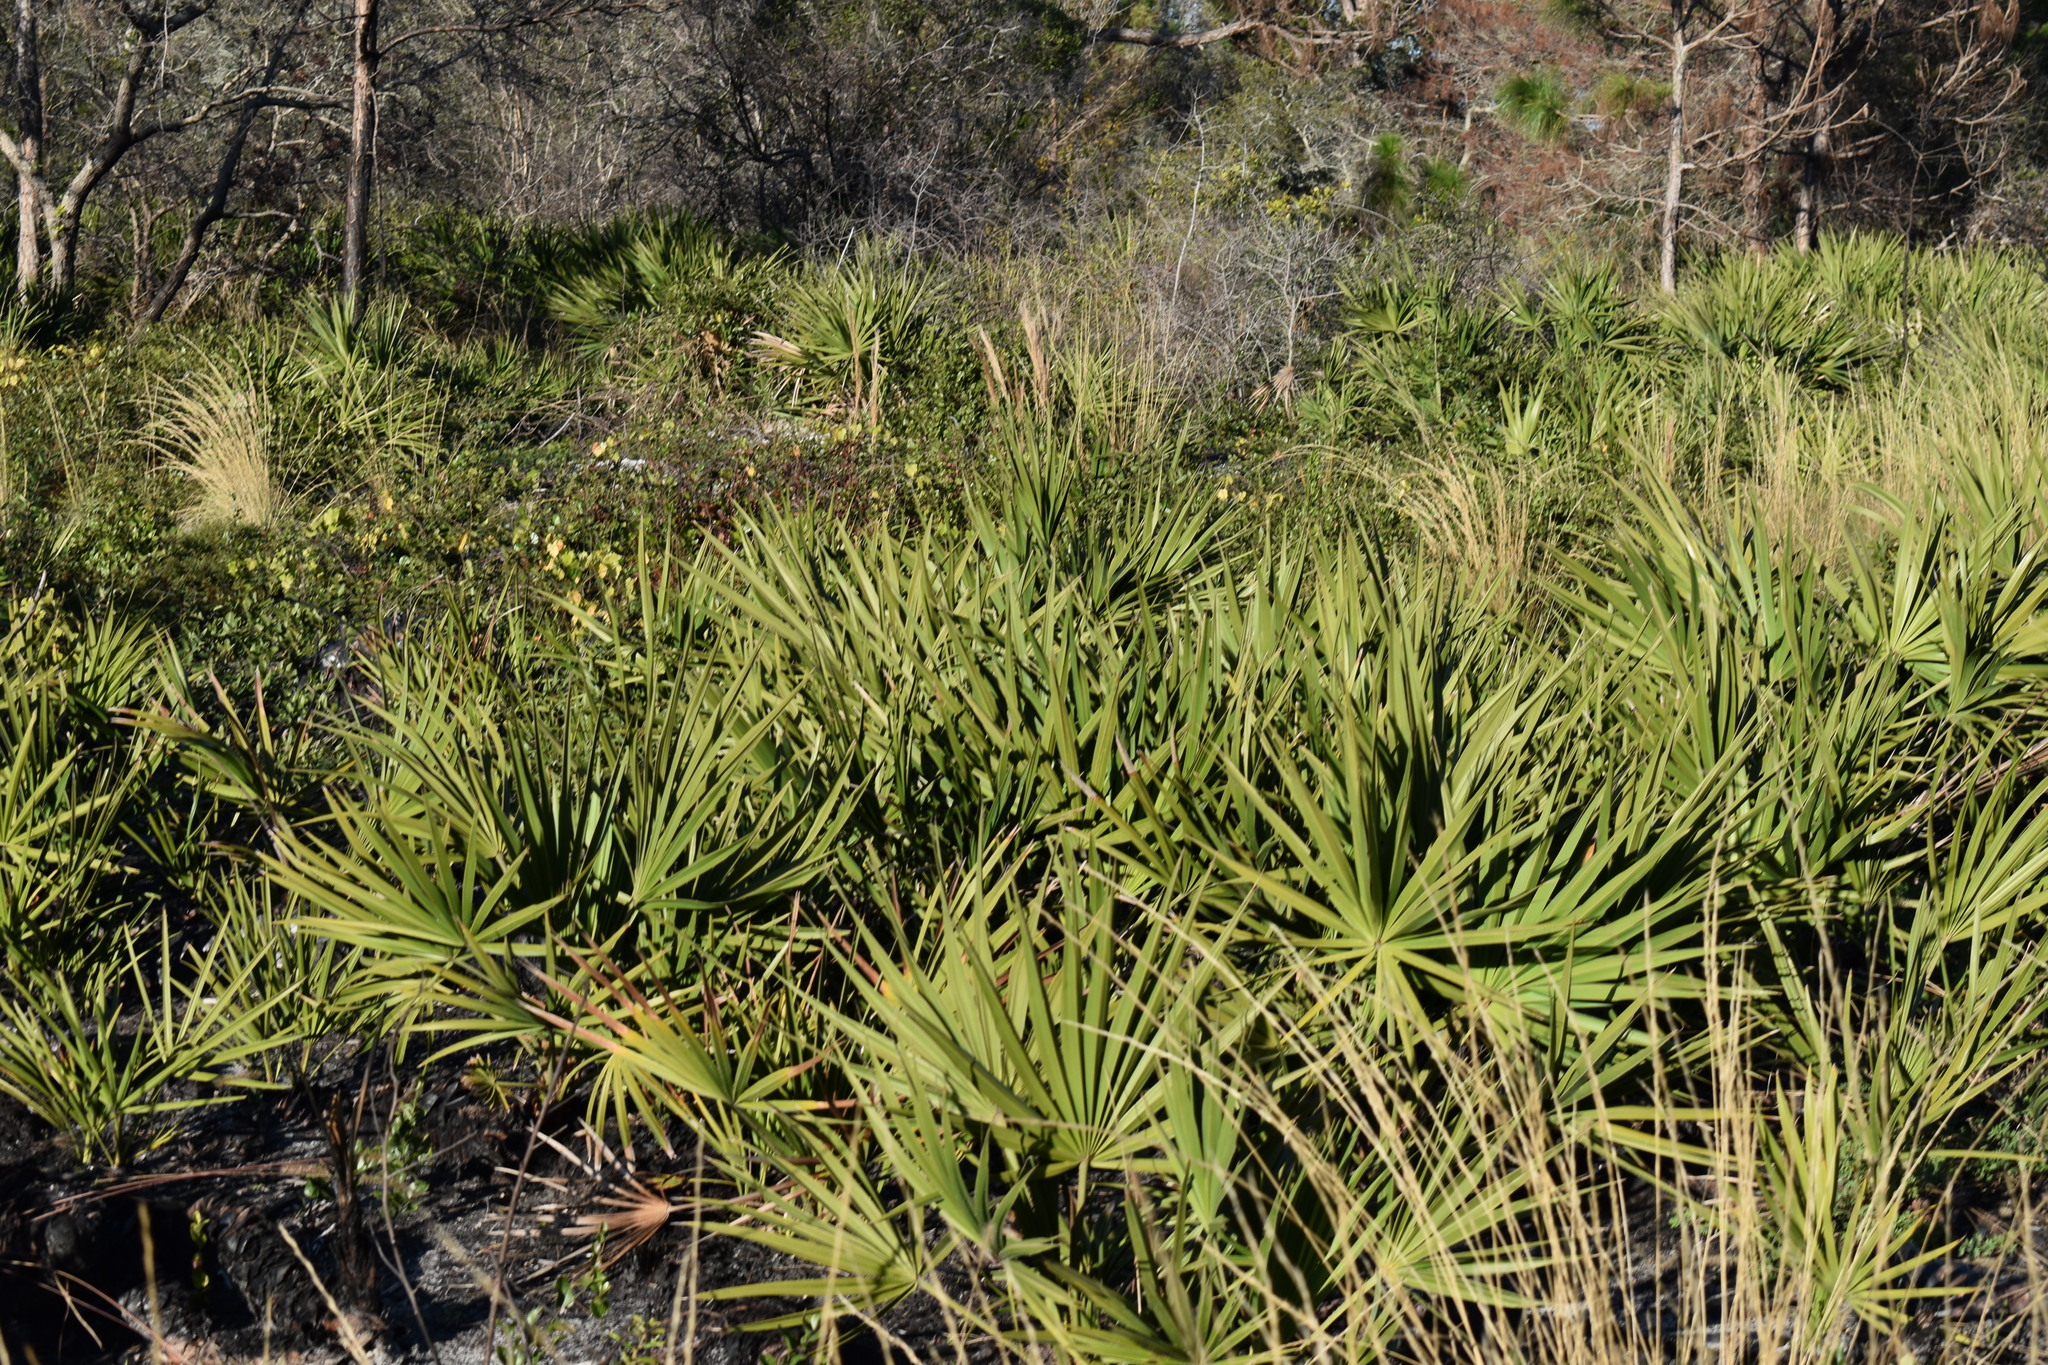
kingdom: Plantae
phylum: Tracheophyta
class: Liliopsida
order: Arecales
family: Arecaceae
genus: Serenoa
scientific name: Serenoa repens
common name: Saw-palmetto
